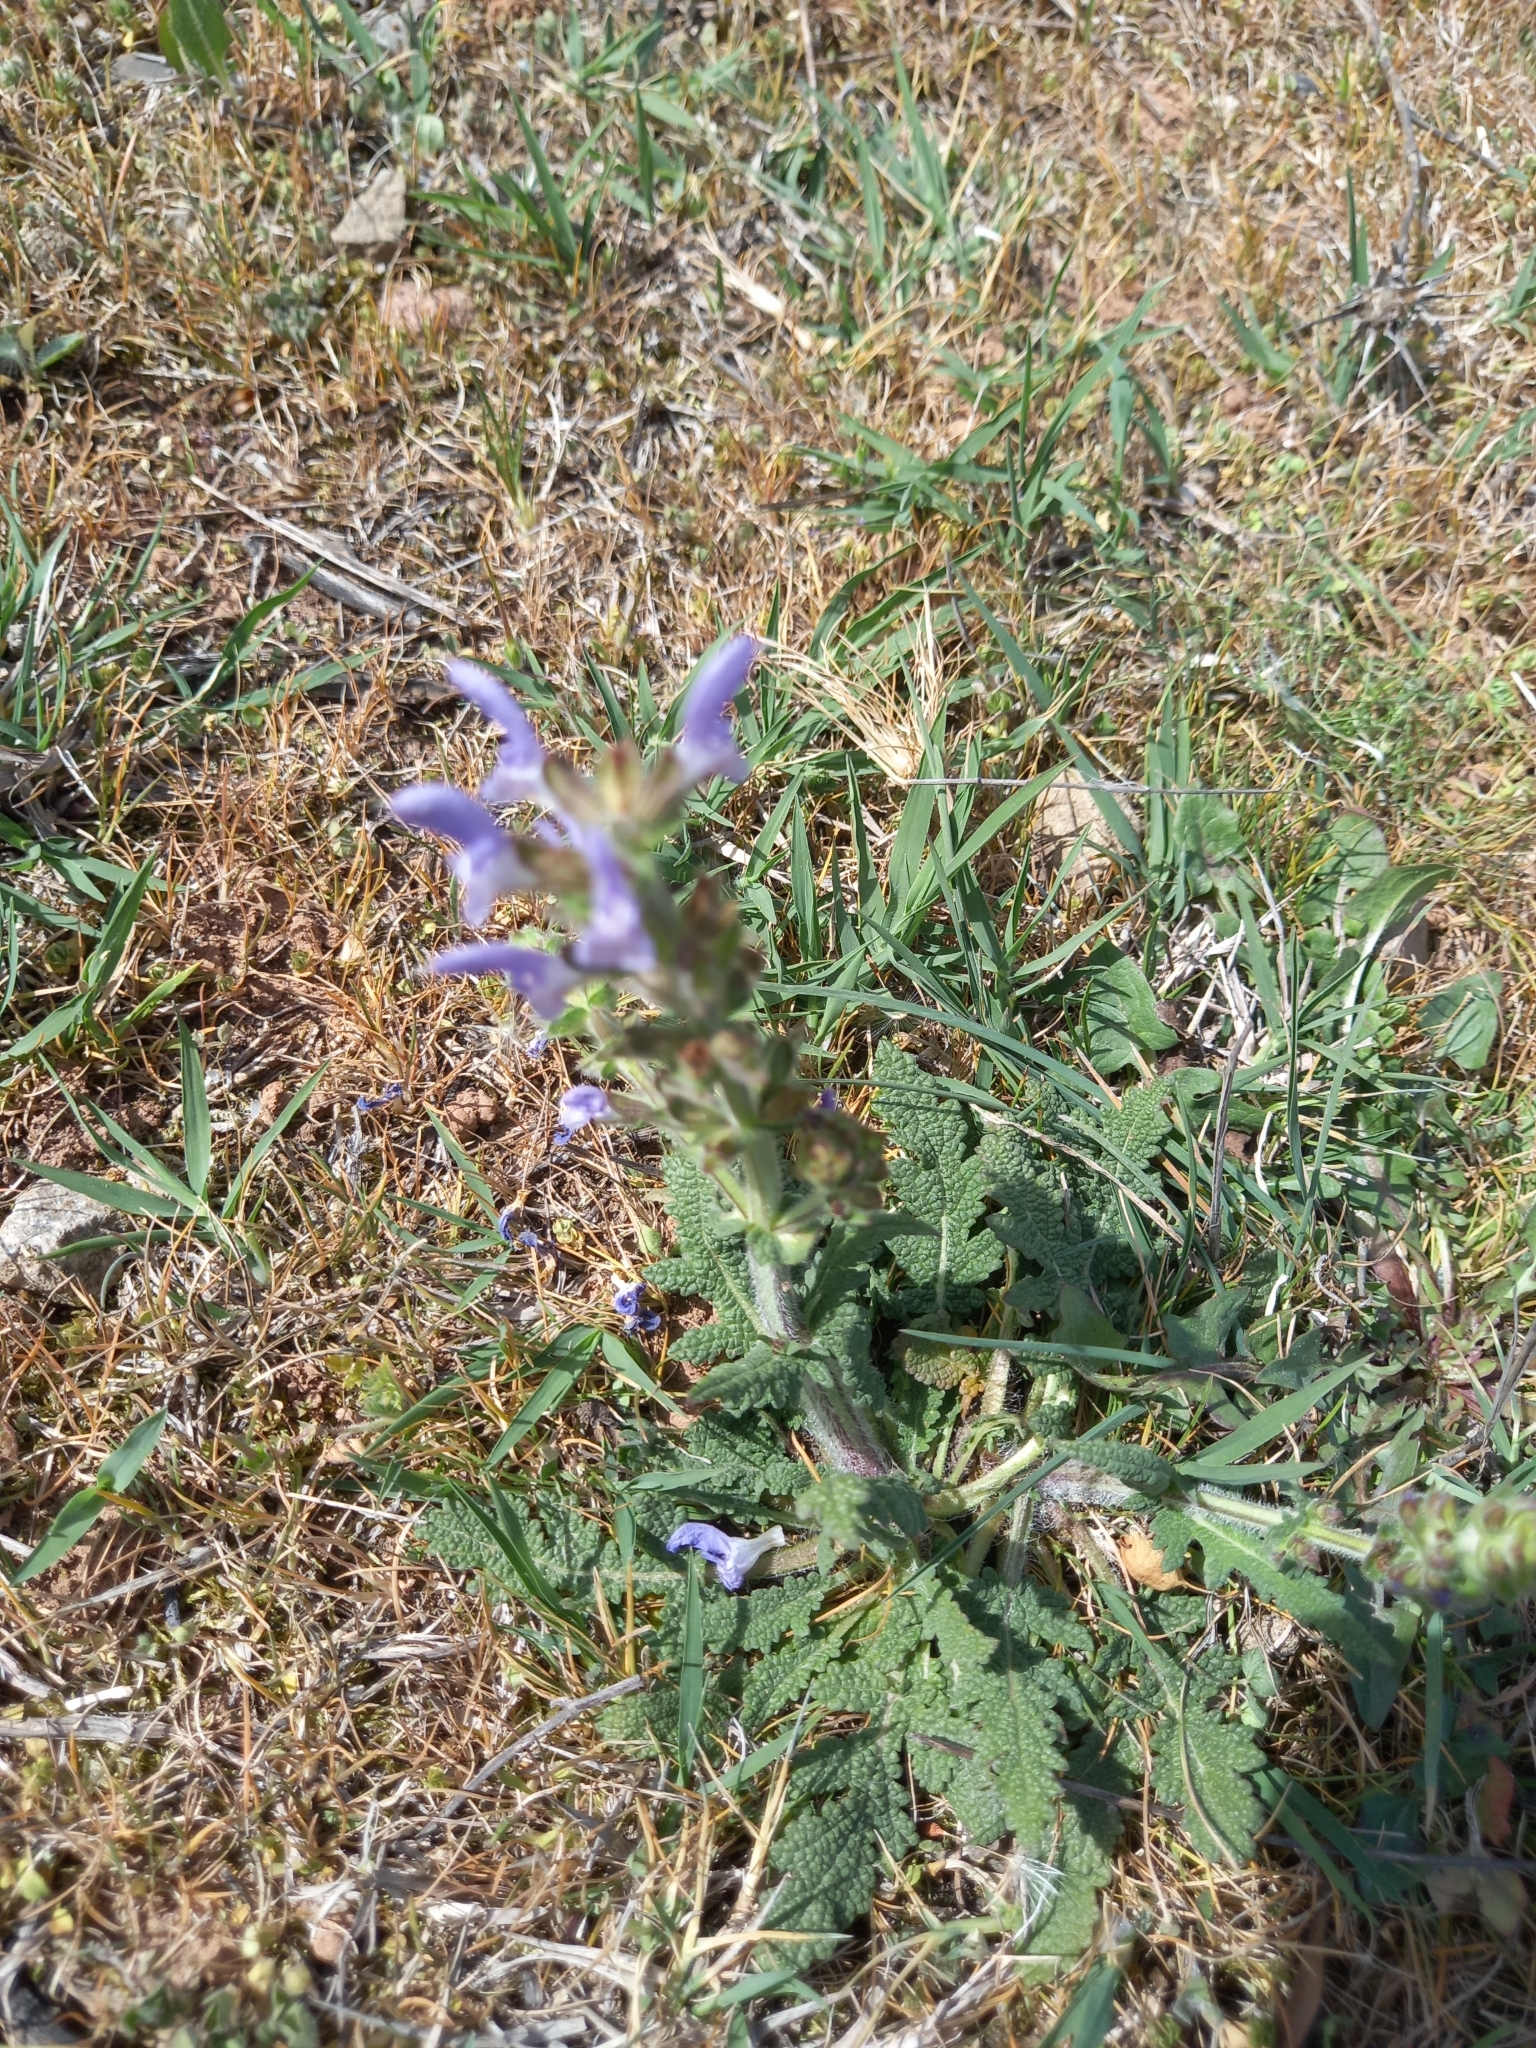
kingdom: Plantae
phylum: Tracheophyta
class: Magnoliopsida
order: Lamiales
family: Lamiaceae
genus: Salvia
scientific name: Salvia verbenaca
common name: Wild clary
